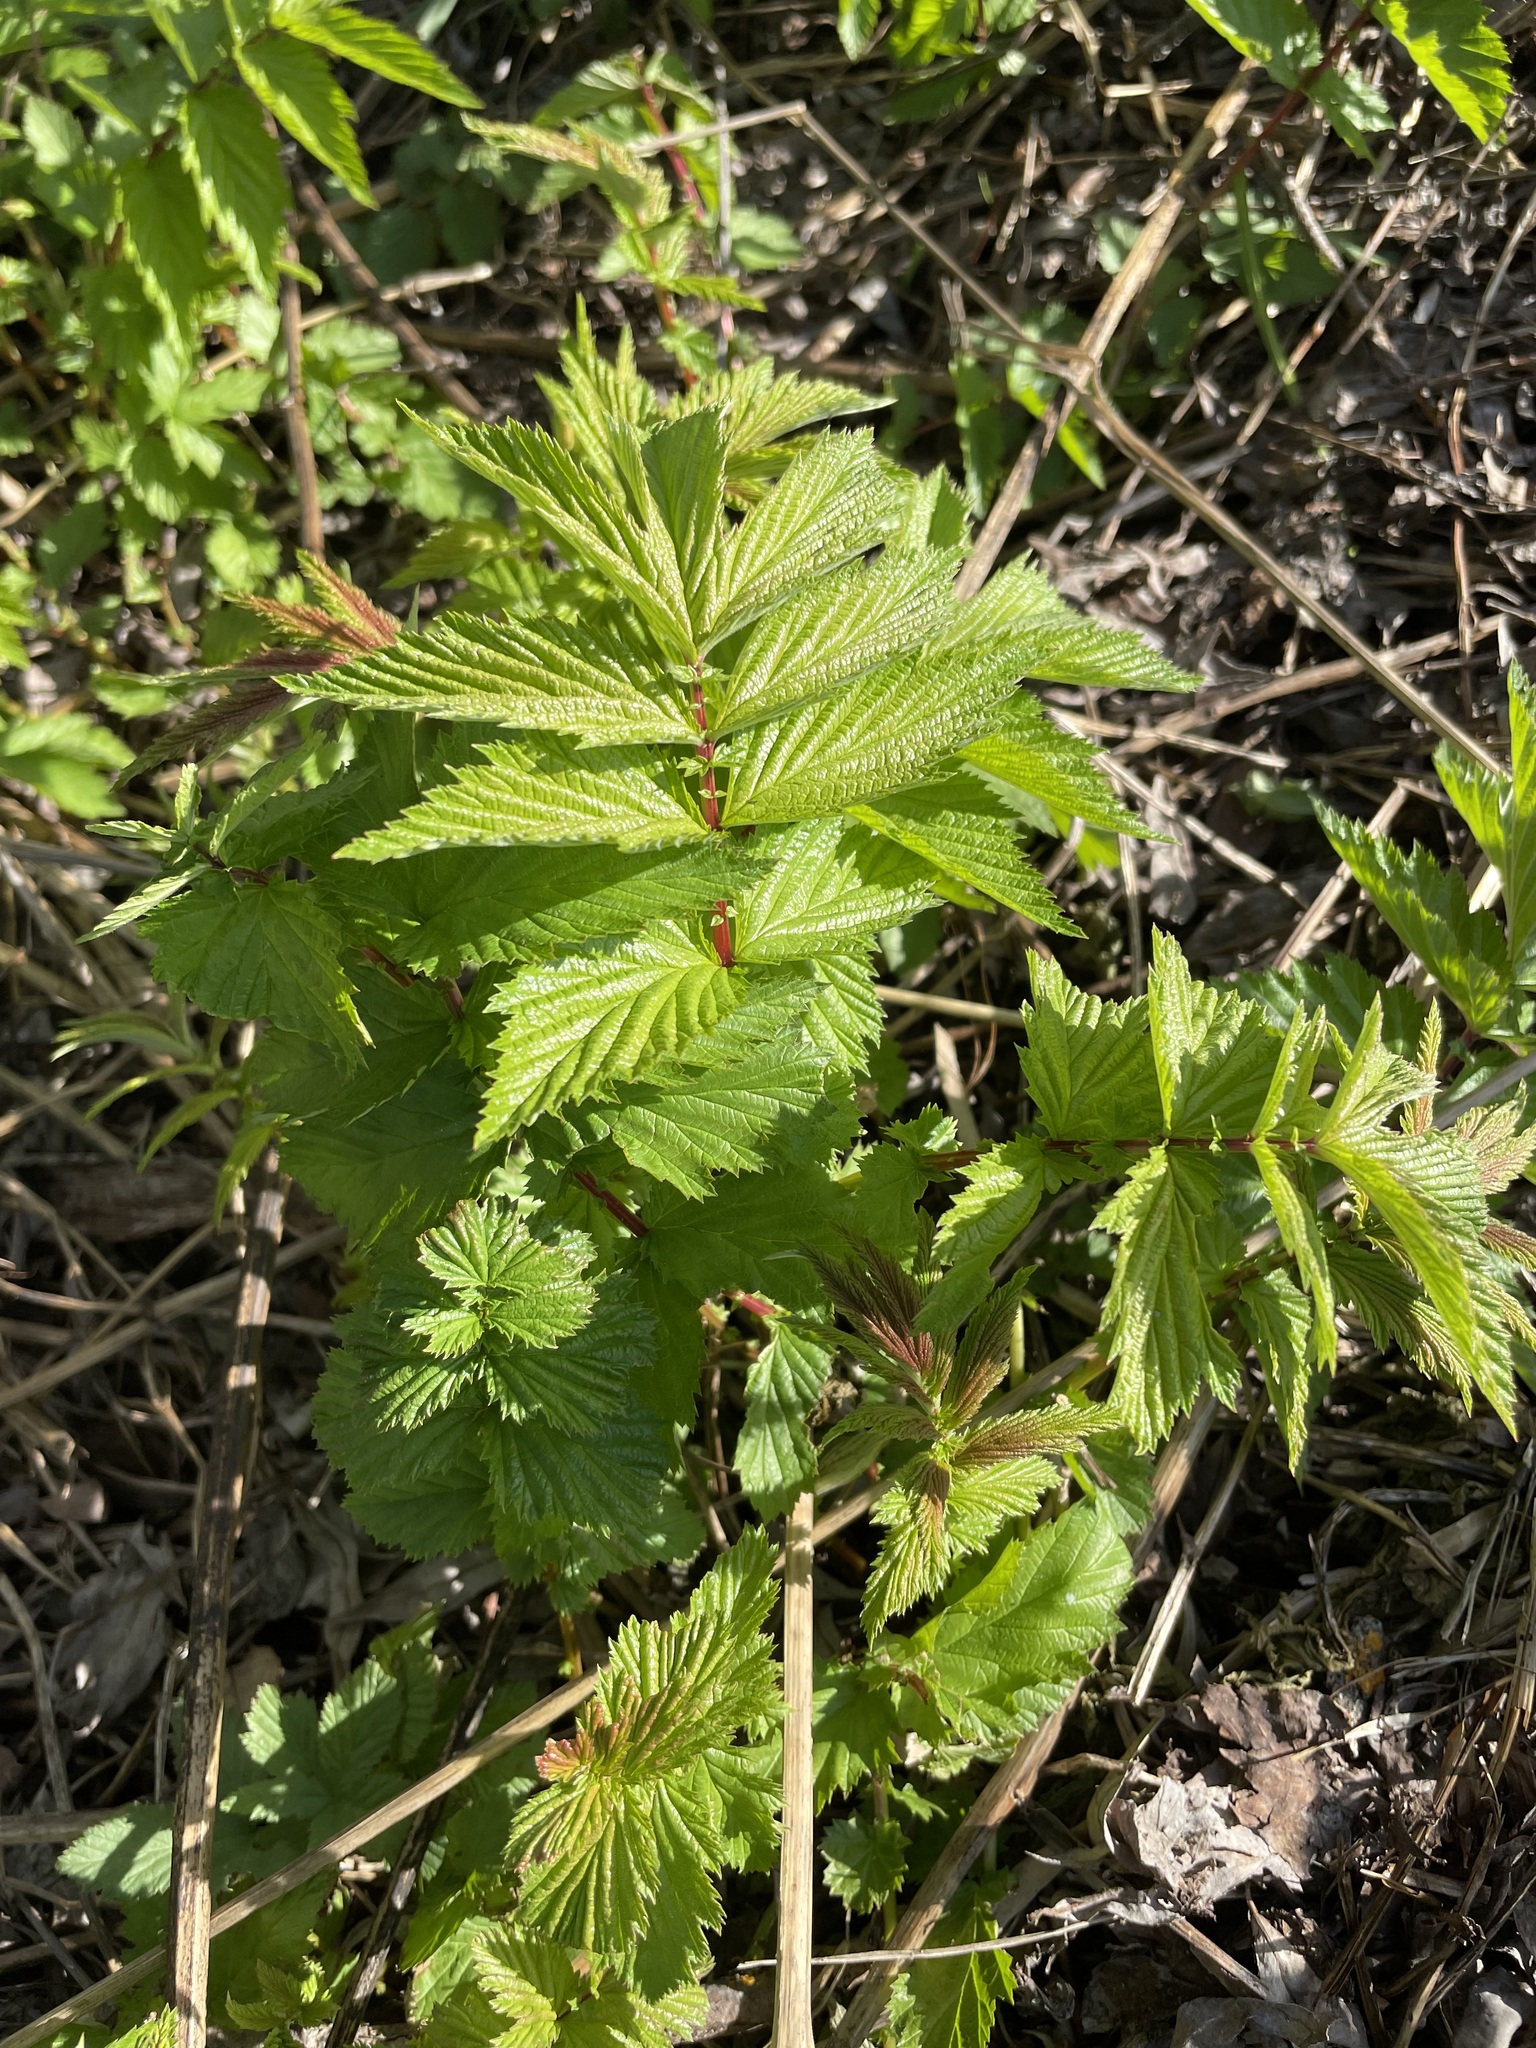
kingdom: Plantae
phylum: Tracheophyta
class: Magnoliopsida
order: Rosales
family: Rosaceae
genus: Filipendula
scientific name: Filipendula ulmaria
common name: Meadowsweet
